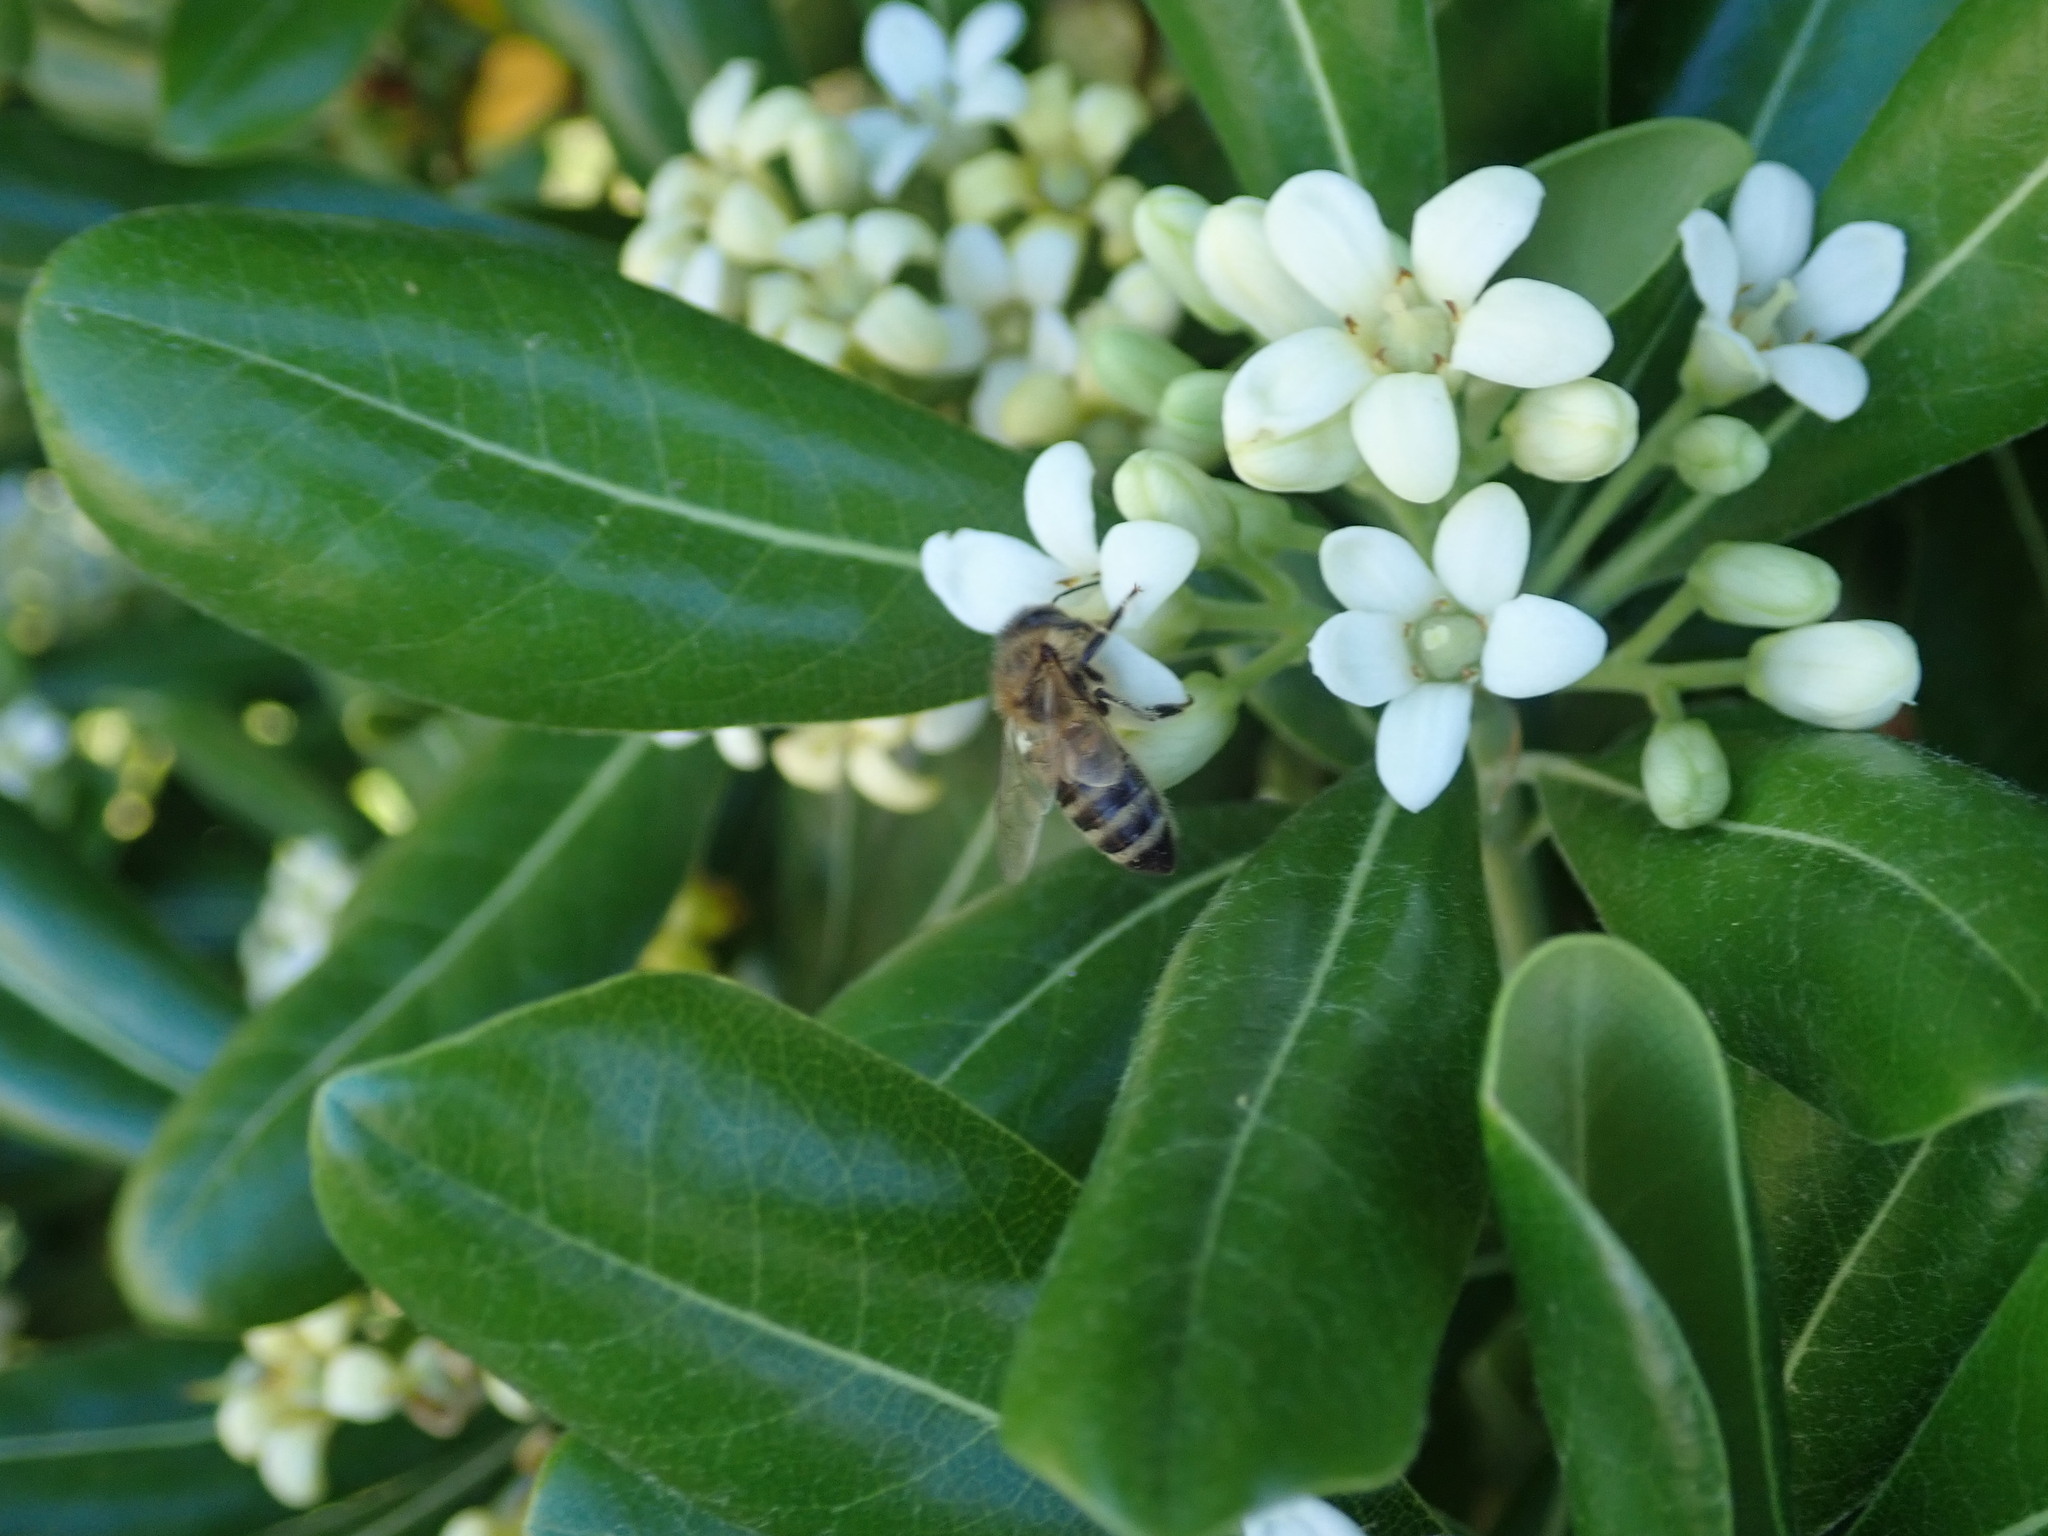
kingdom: Animalia
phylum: Arthropoda
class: Insecta
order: Hymenoptera
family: Apidae
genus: Apis
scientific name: Apis mellifera
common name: Honey bee
